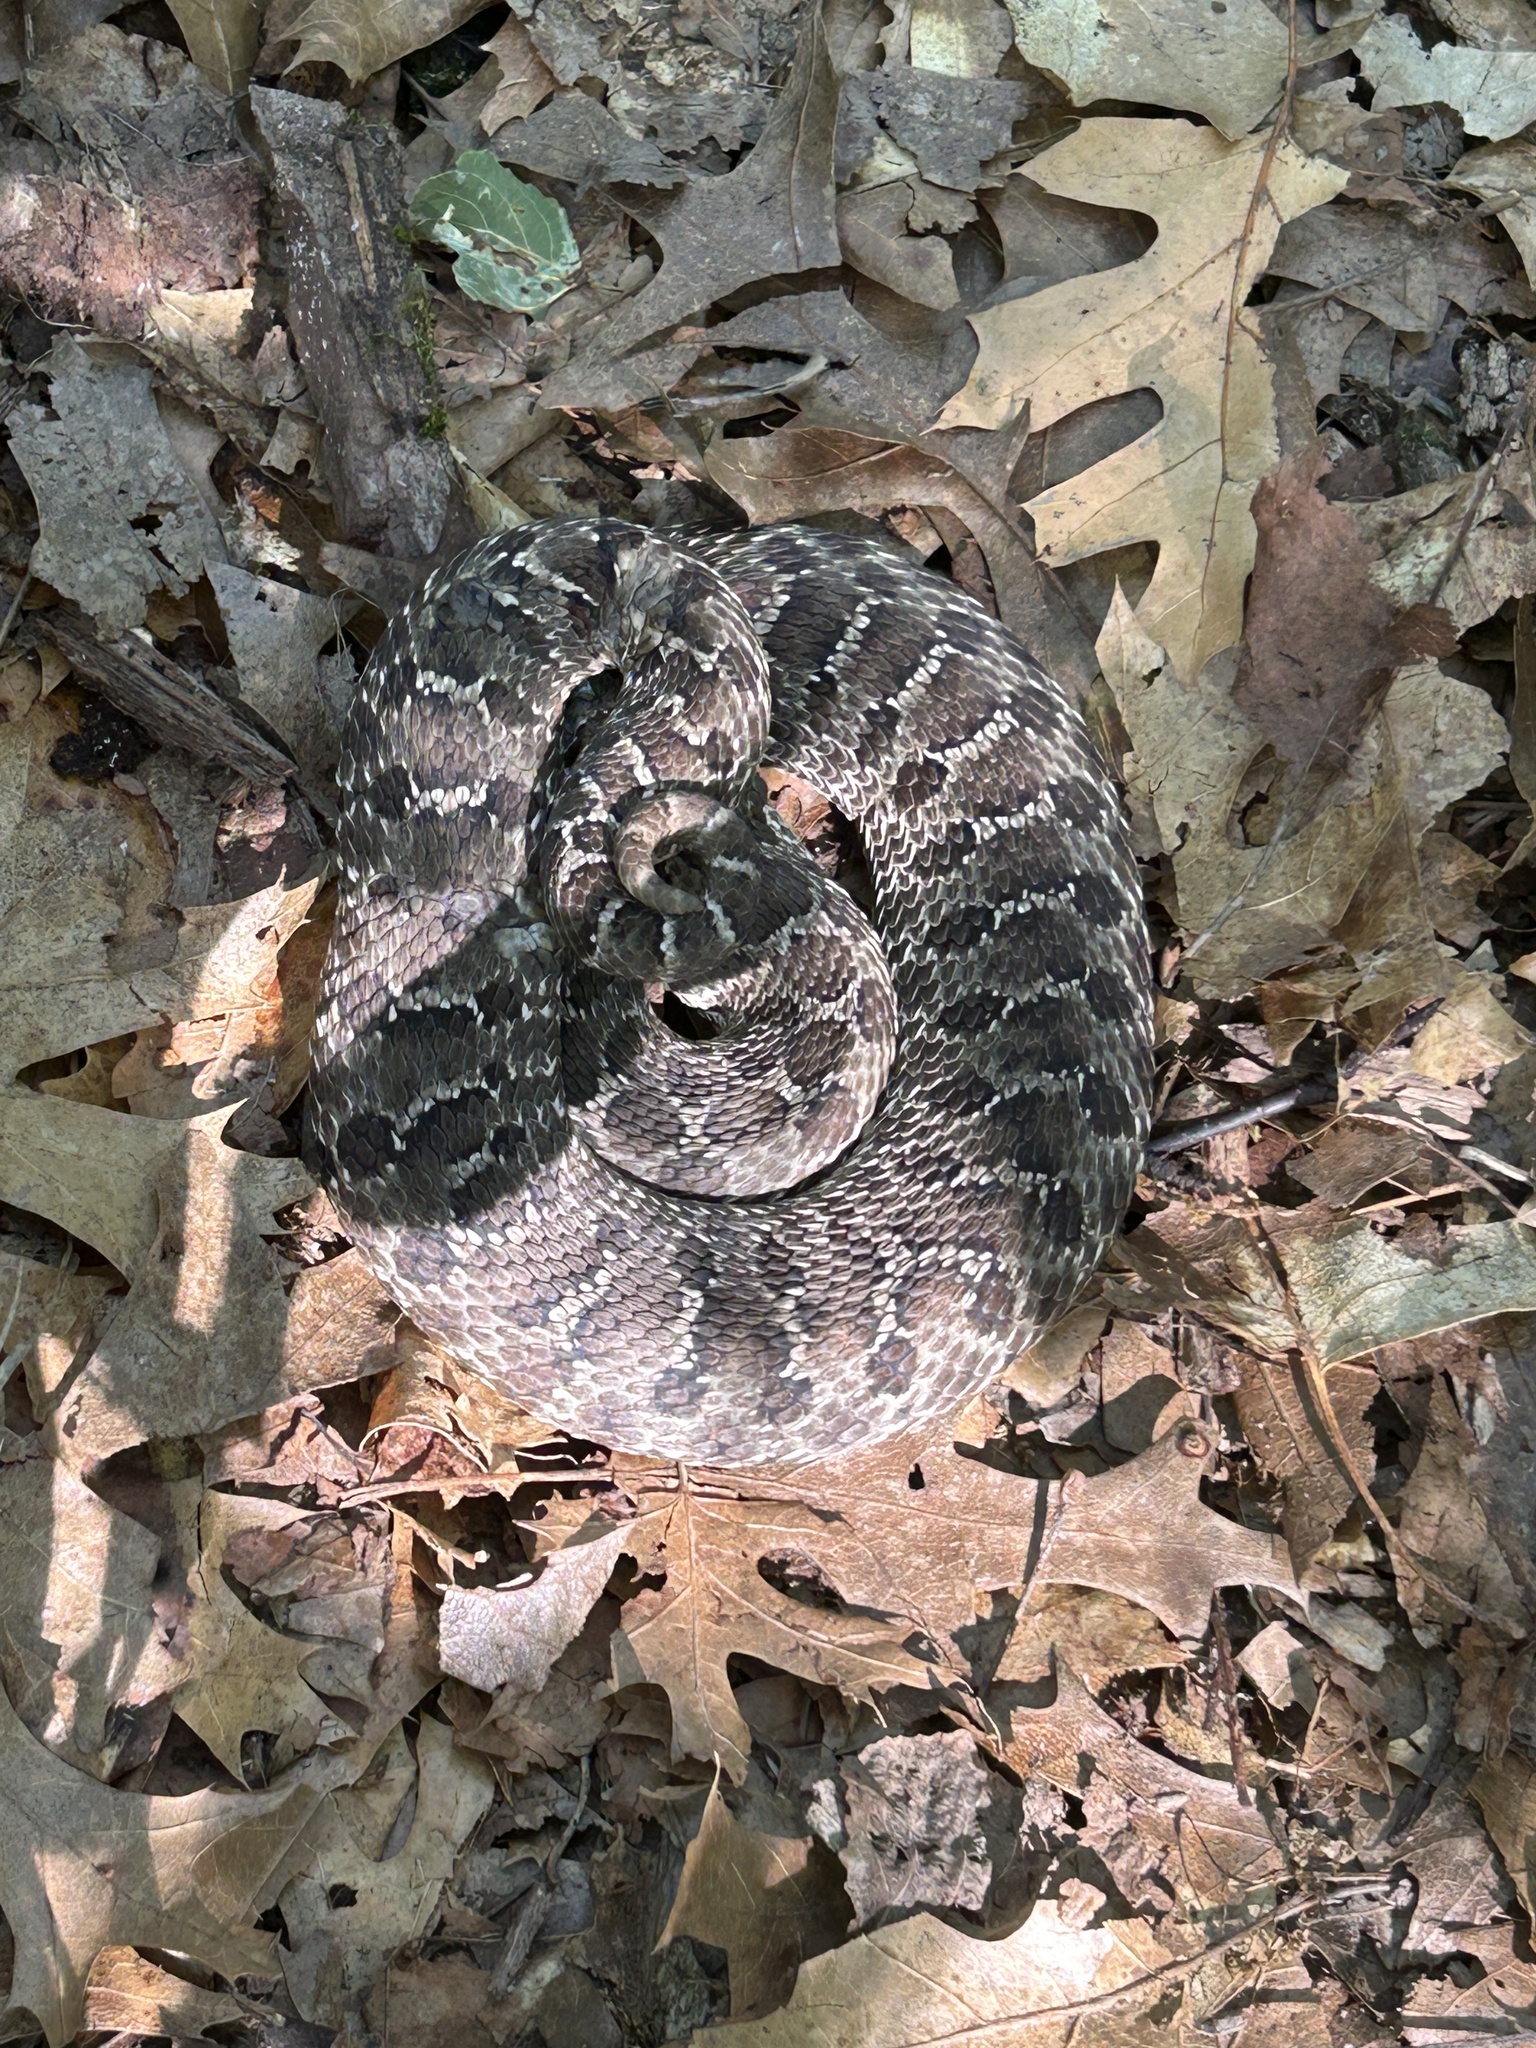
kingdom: Animalia
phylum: Chordata
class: Squamata
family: Colubridae
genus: Heterodon
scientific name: Heterodon nasicus
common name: Western hognose snake
